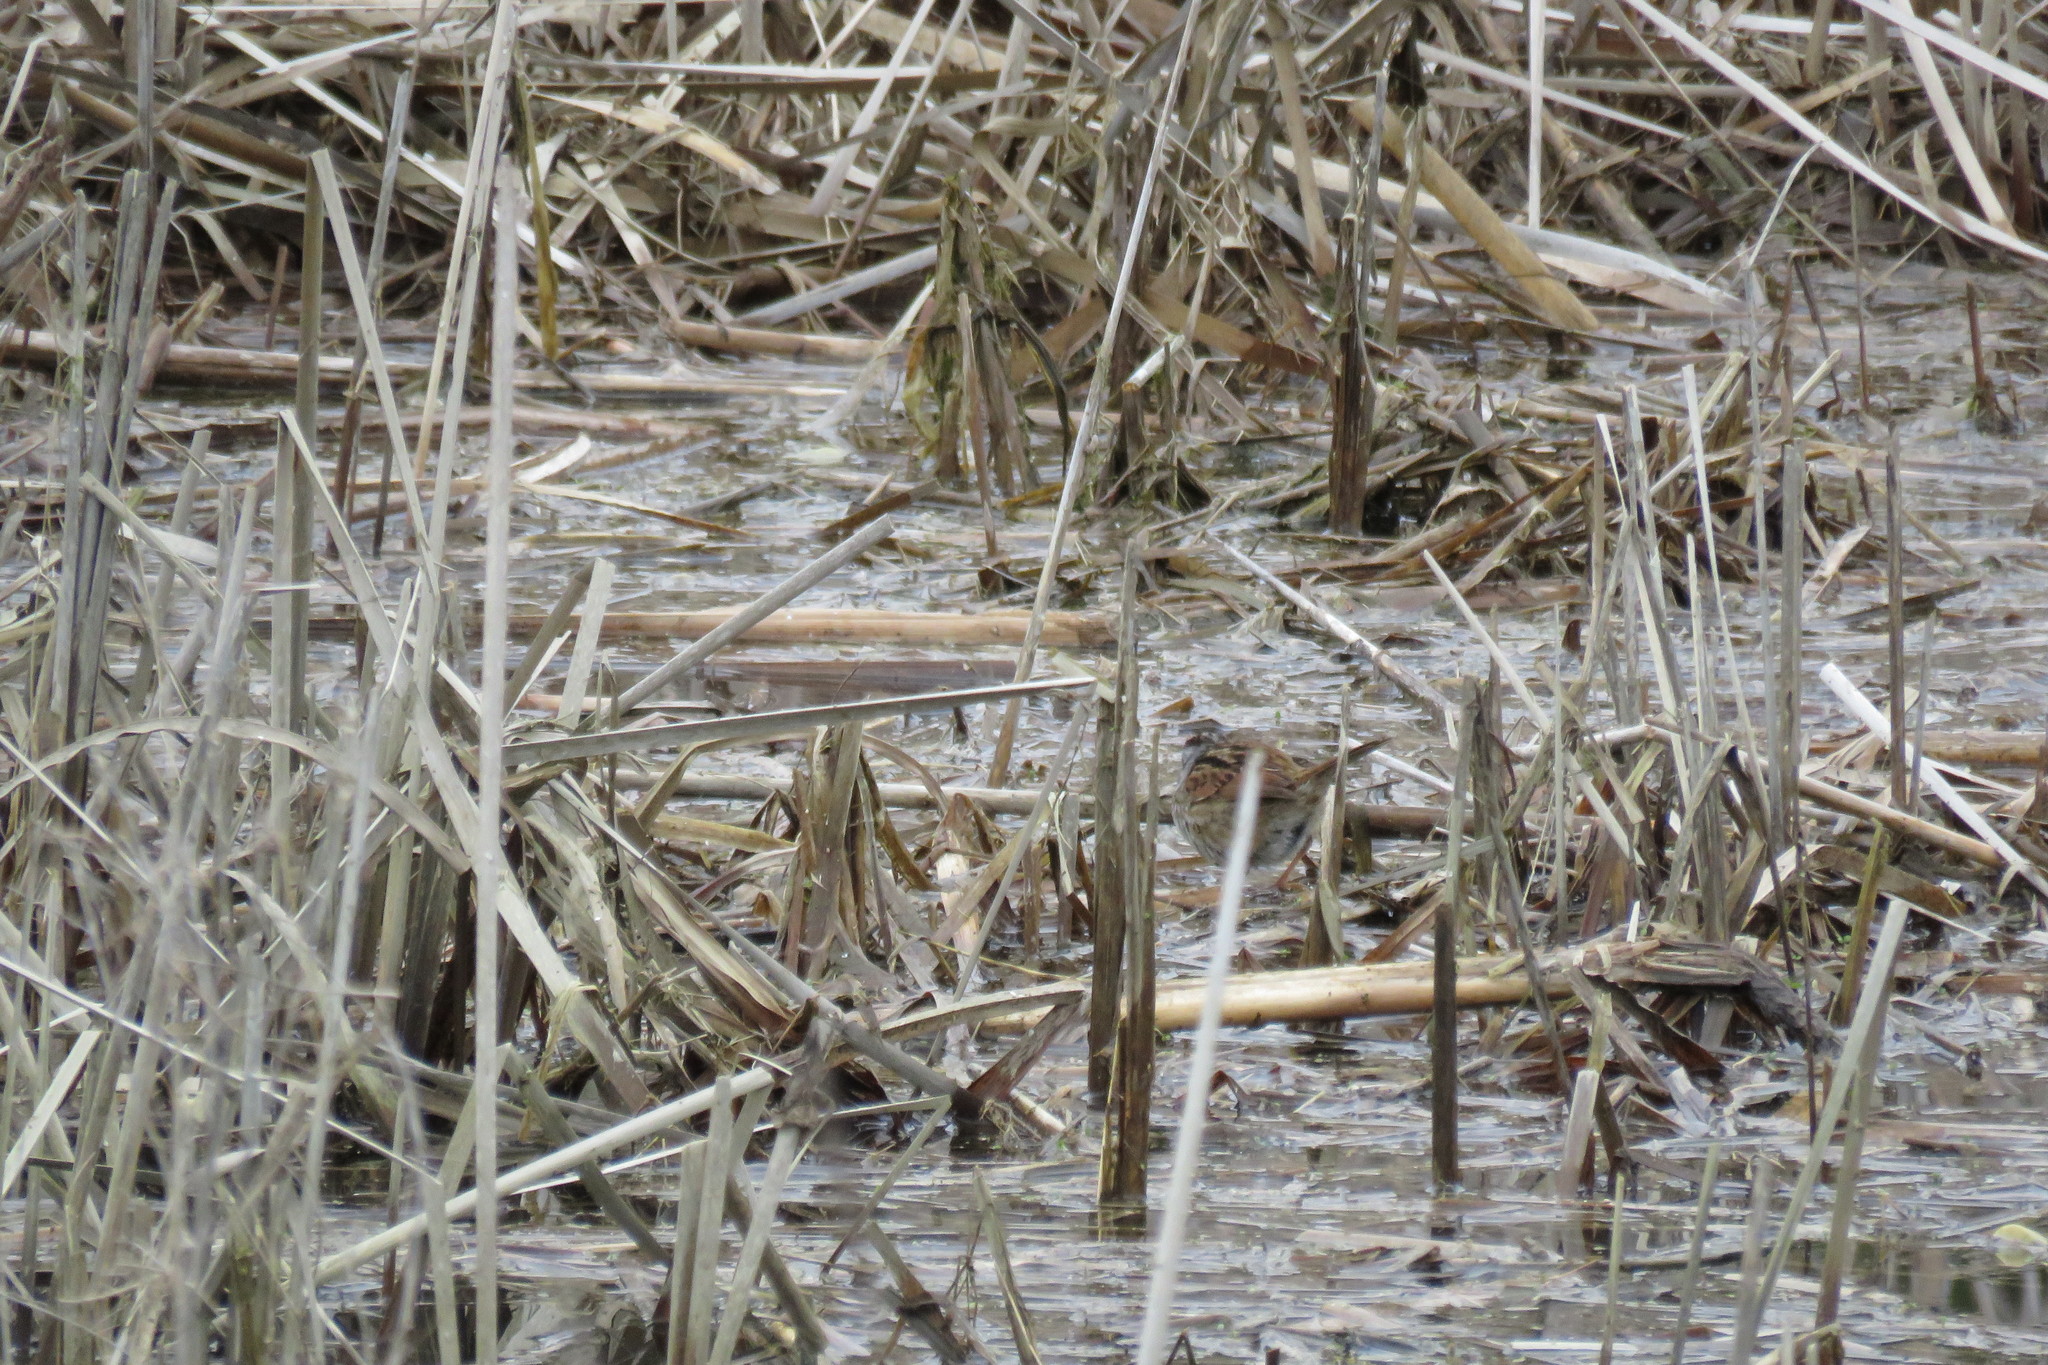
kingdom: Animalia
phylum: Chordata
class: Aves
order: Passeriformes
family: Passerellidae
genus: Melospiza
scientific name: Melospiza georgiana
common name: Swamp sparrow
